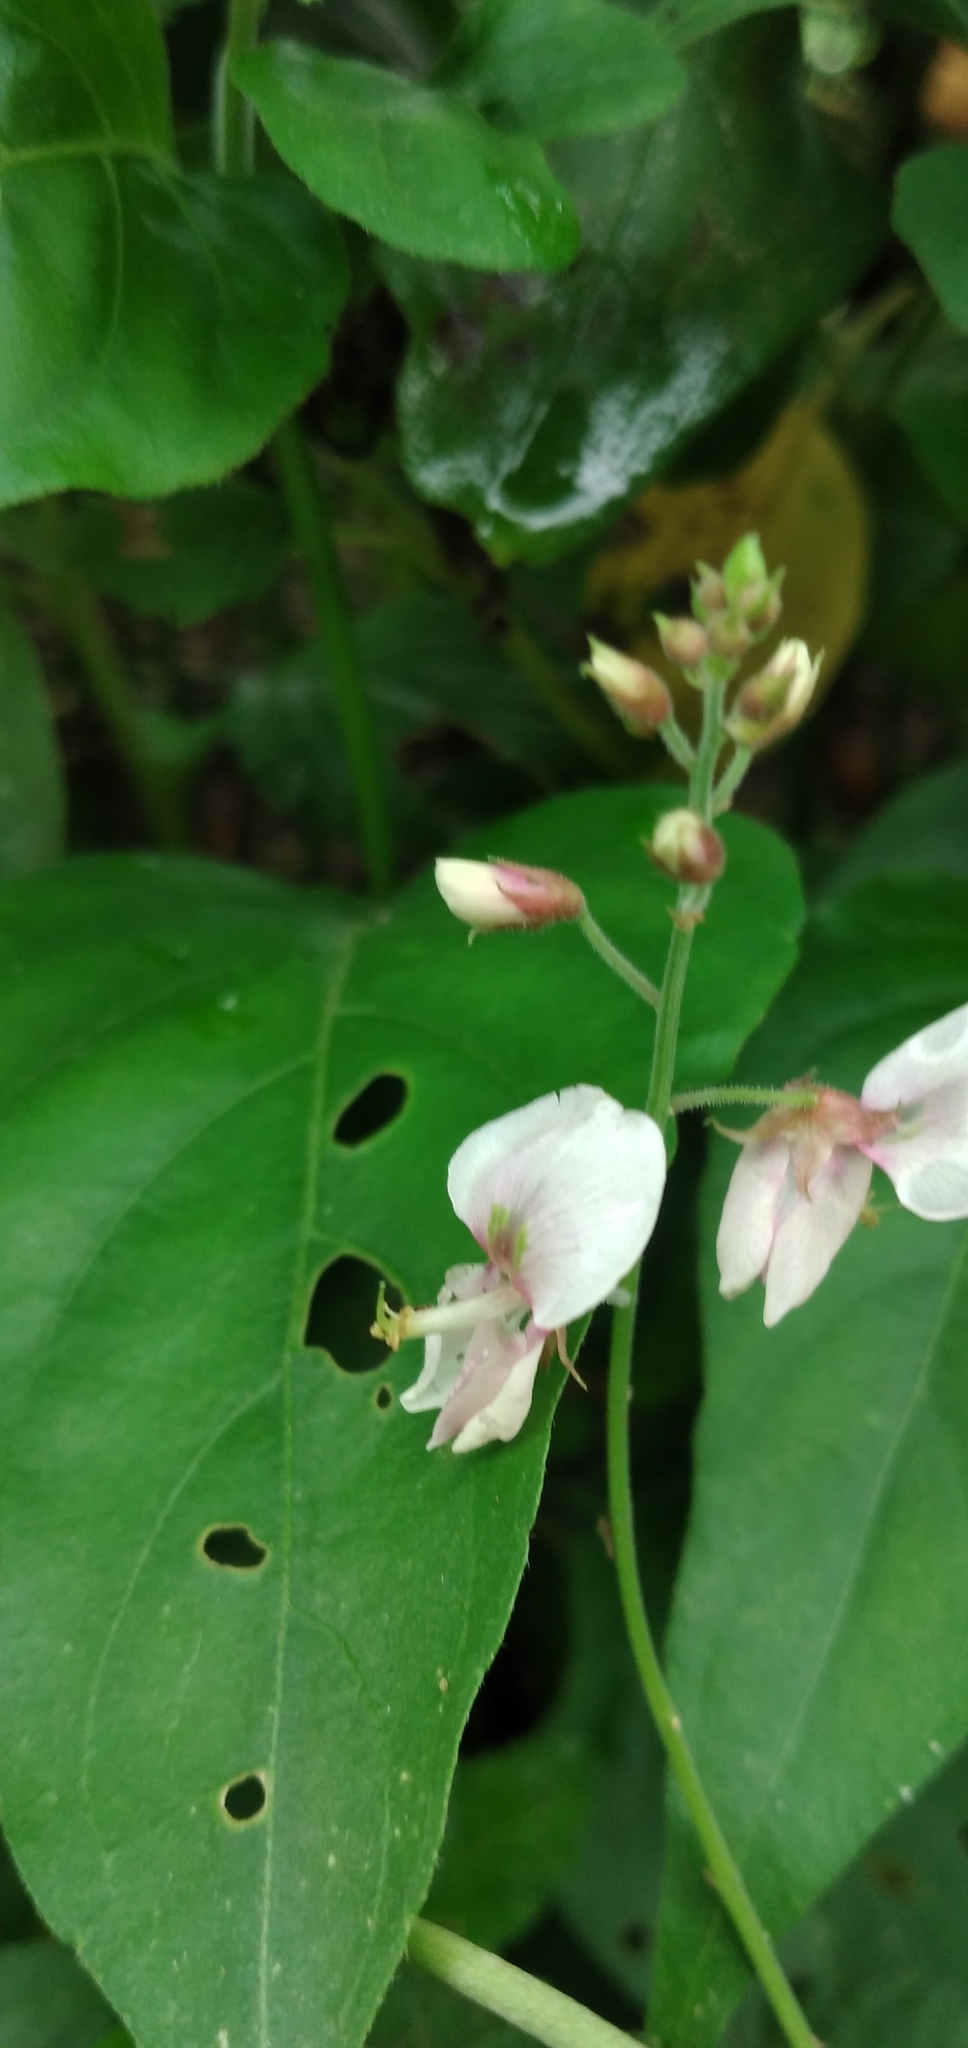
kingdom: Plantae
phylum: Tracheophyta
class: Magnoliopsida
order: Fabales
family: Fabaceae
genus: Desmodium
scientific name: Desmodium affine
